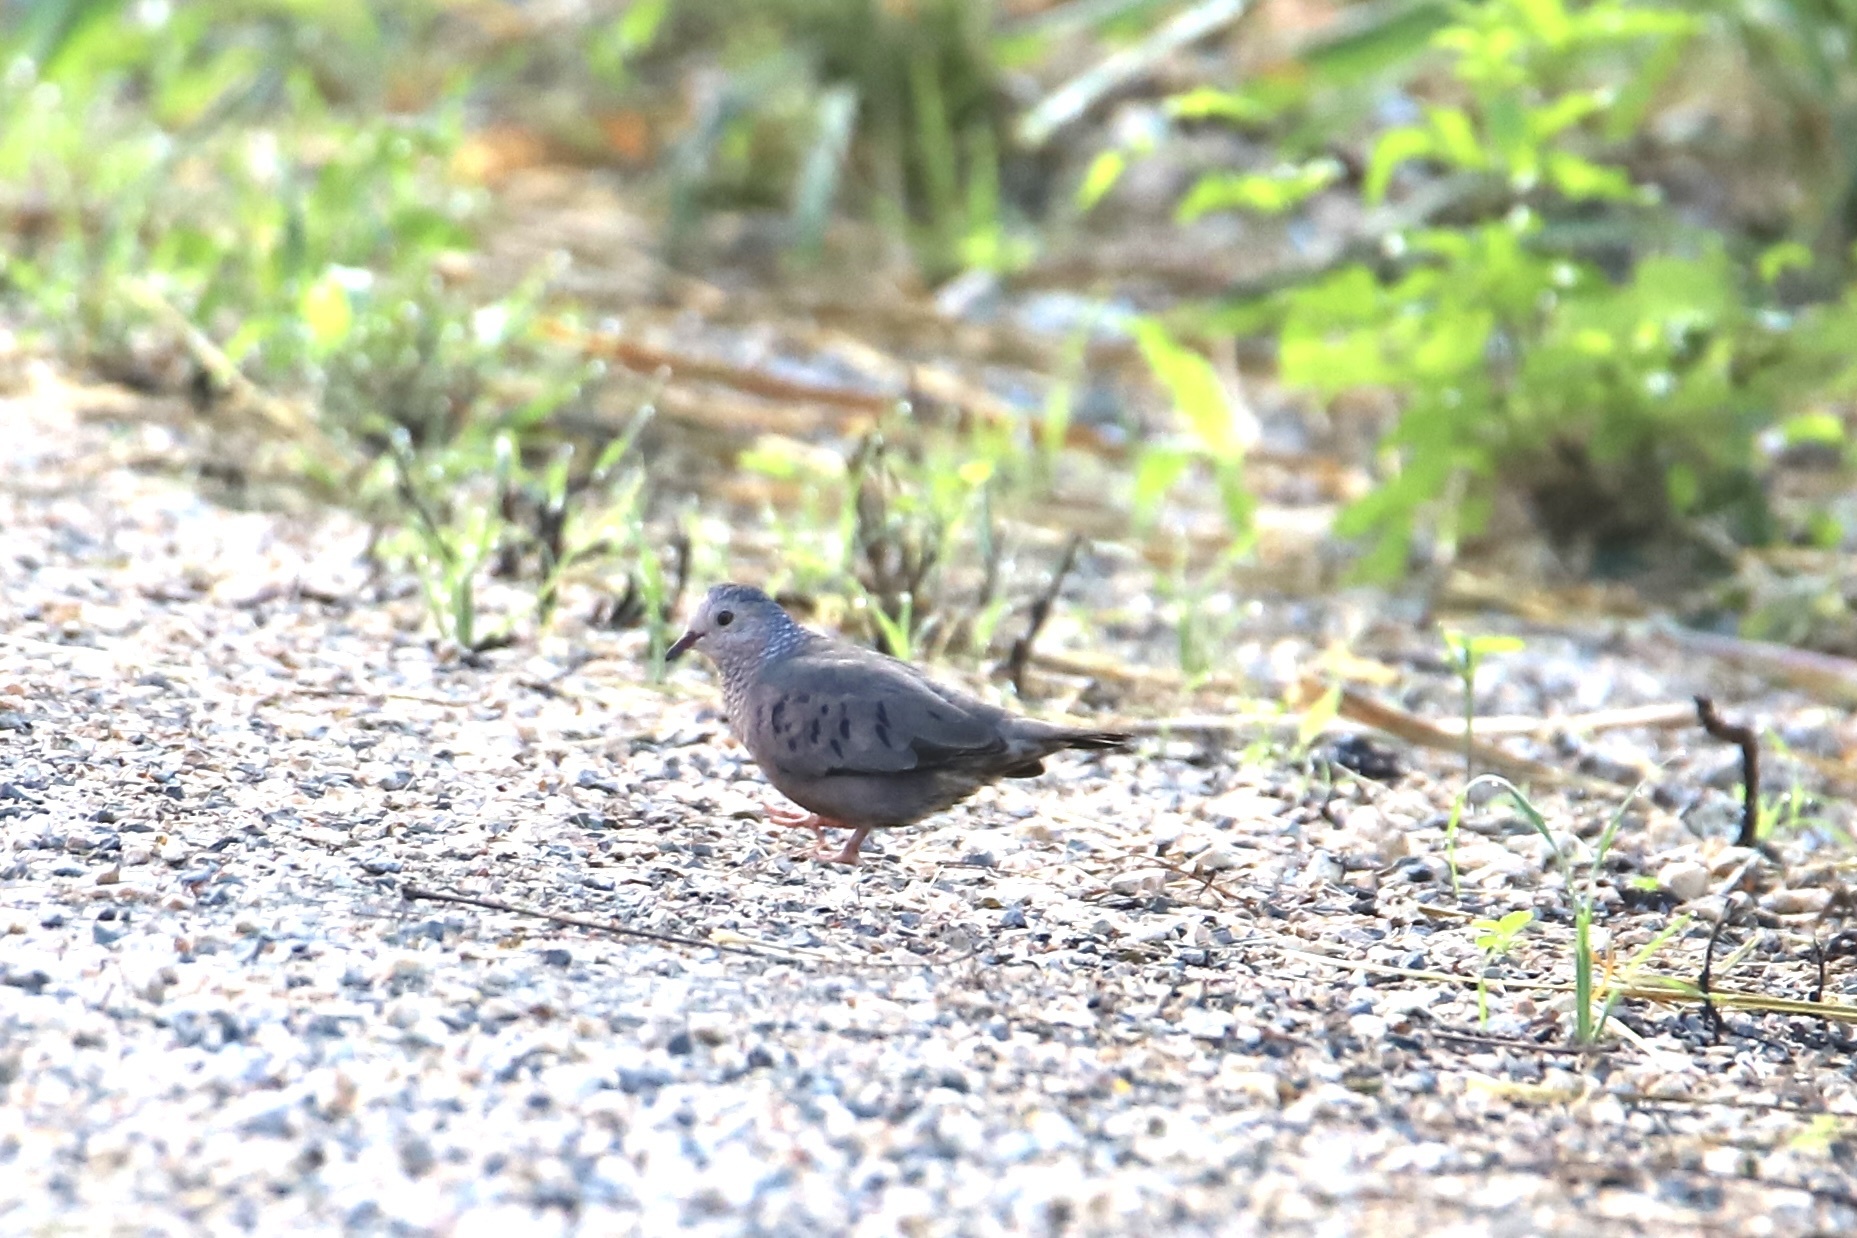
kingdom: Animalia
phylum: Chordata
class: Aves
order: Columbiformes
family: Columbidae
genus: Columbina
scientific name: Columbina passerina
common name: Common ground-dove
